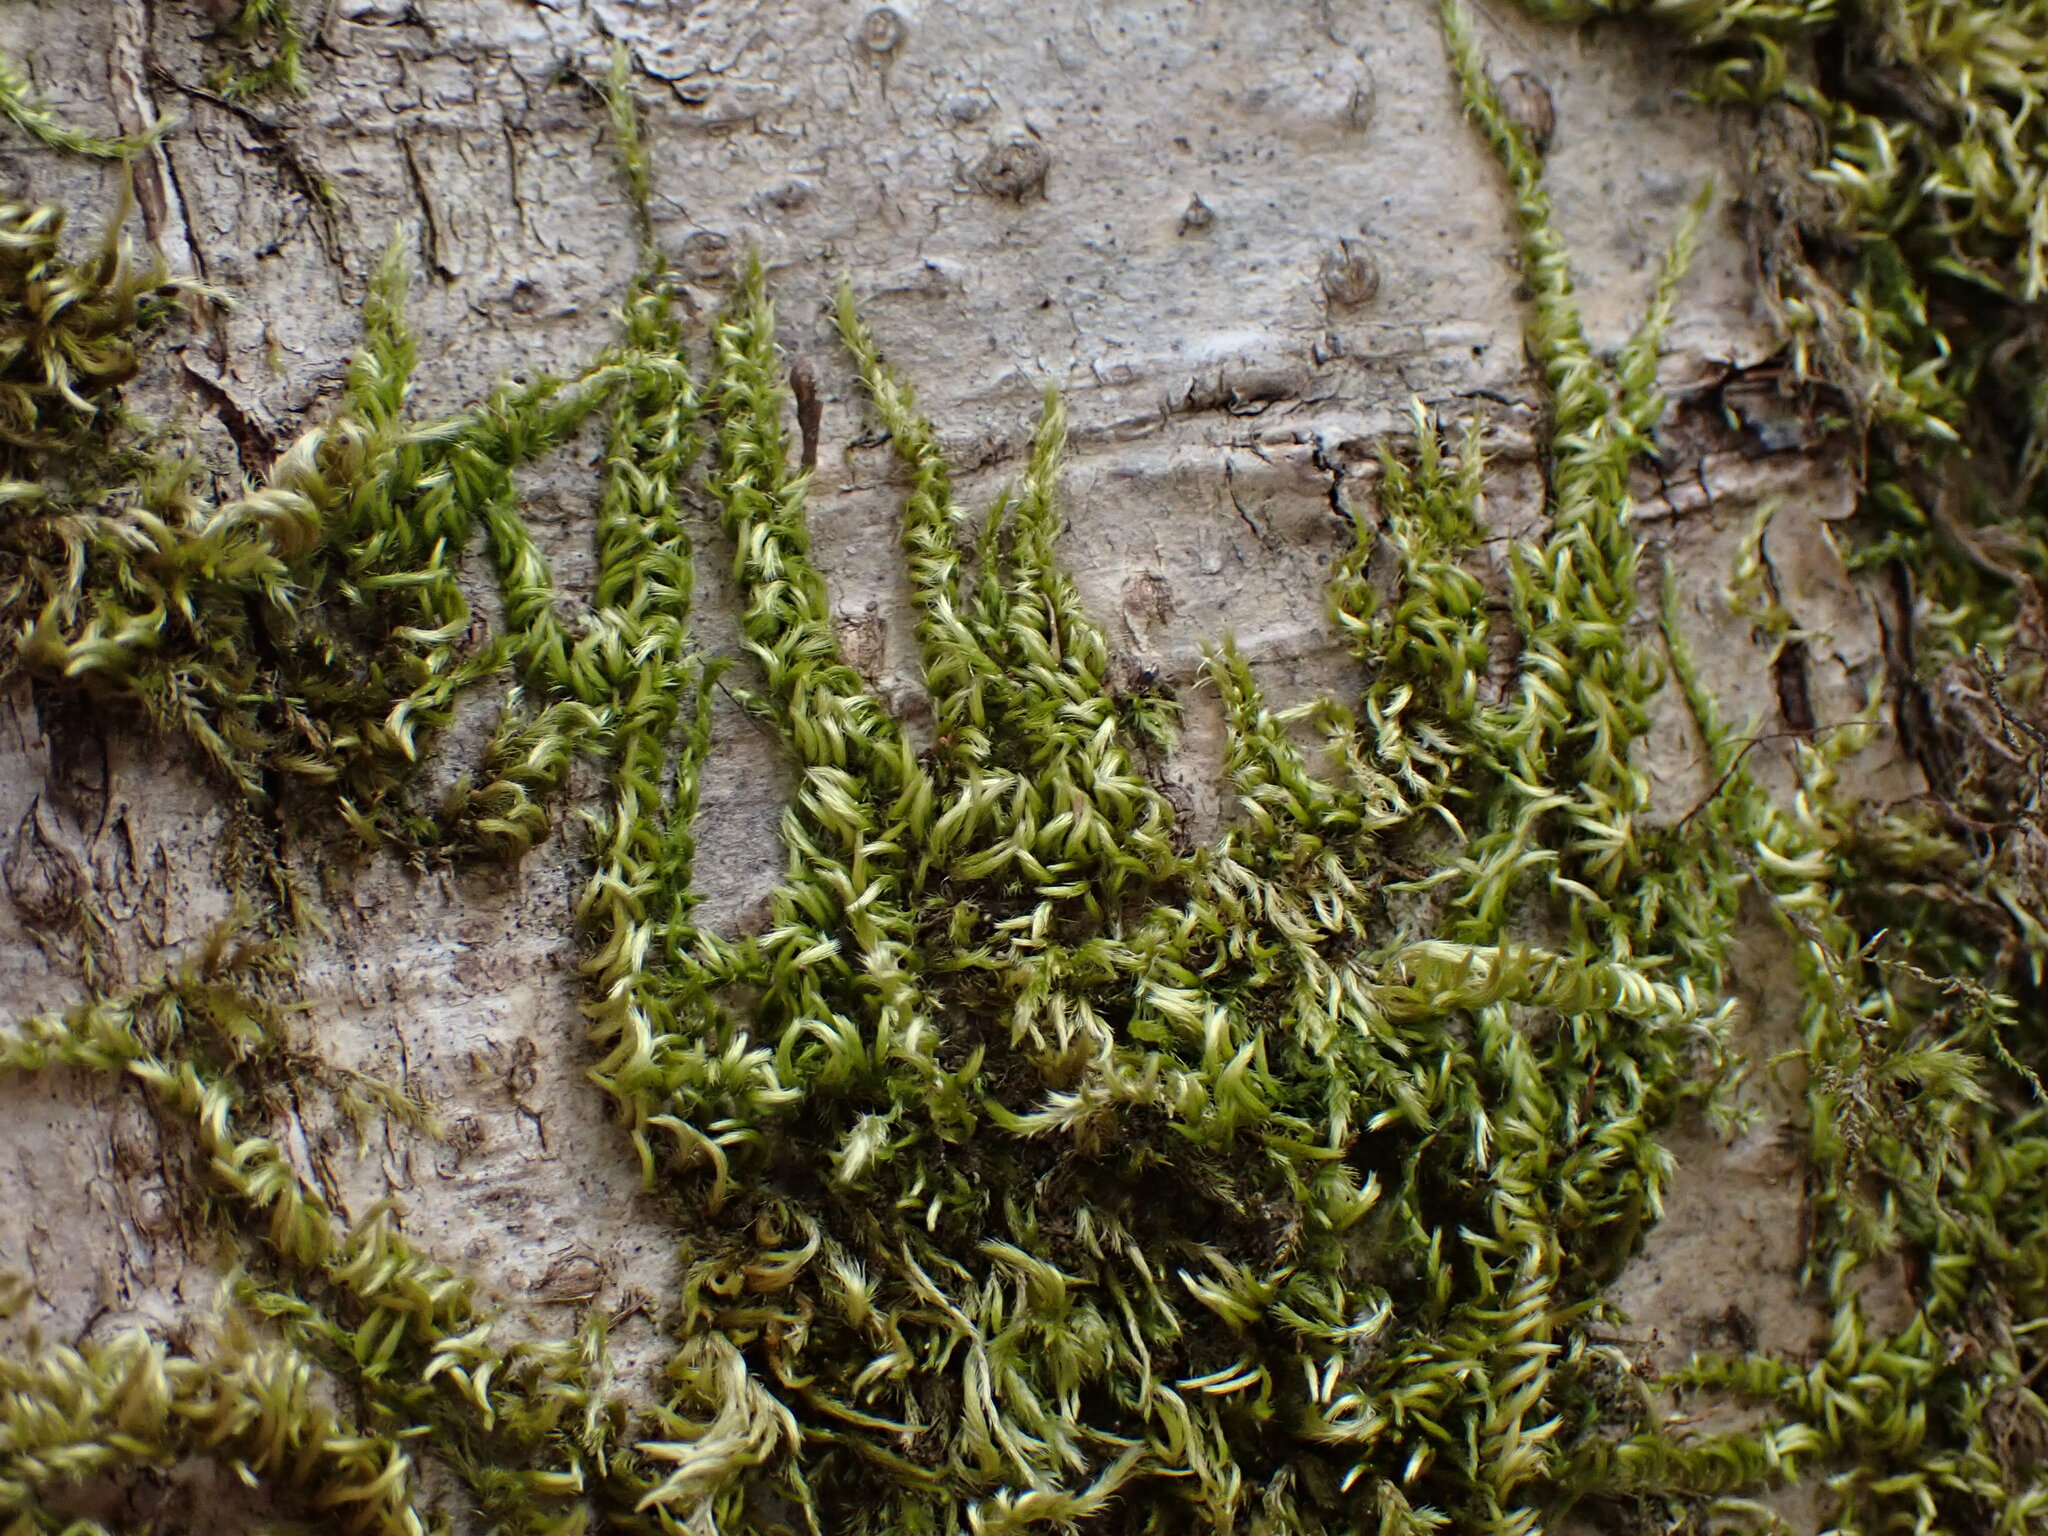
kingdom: Plantae
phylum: Bryophyta
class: Bryopsida
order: Hypnales
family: Brachytheciaceae
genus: Homalothecium
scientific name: Homalothecium nuttallii
